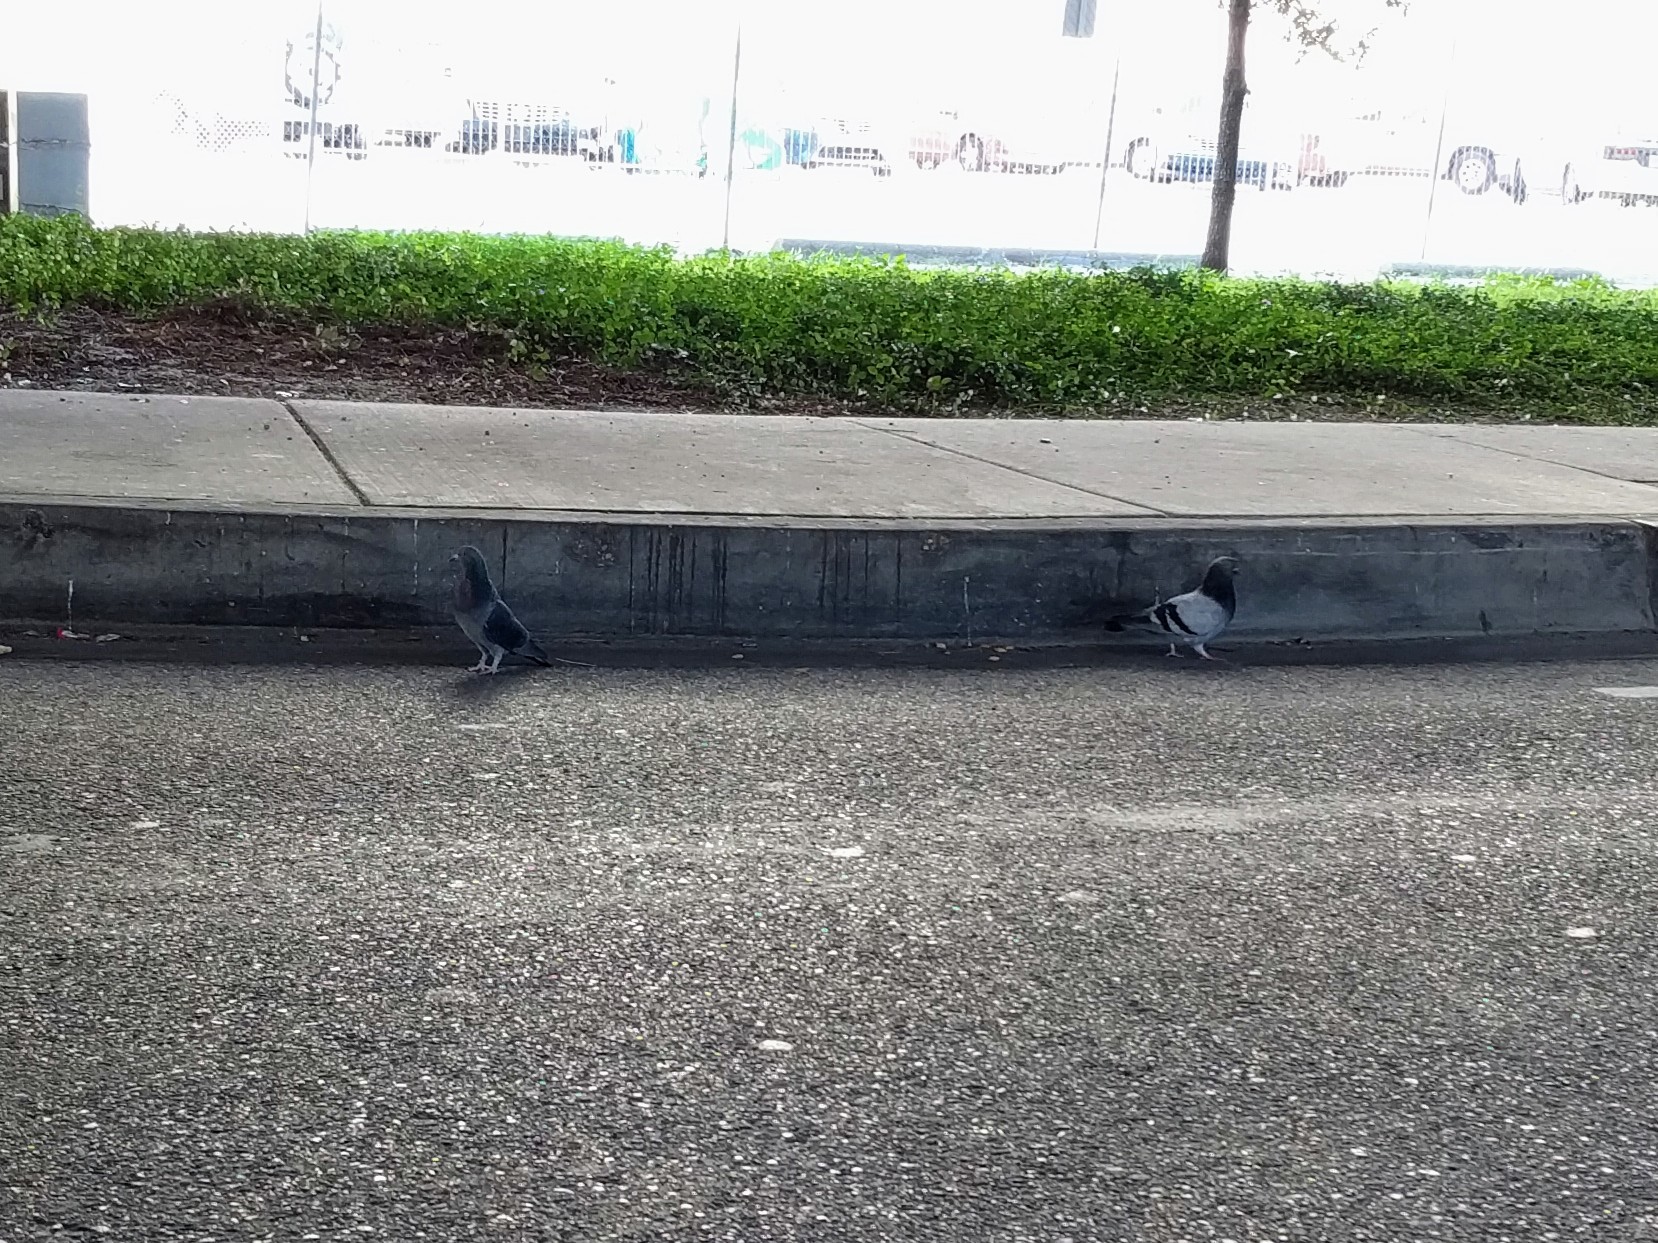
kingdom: Animalia
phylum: Chordata
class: Aves
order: Columbiformes
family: Columbidae
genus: Columba
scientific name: Columba livia
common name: Rock pigeon
